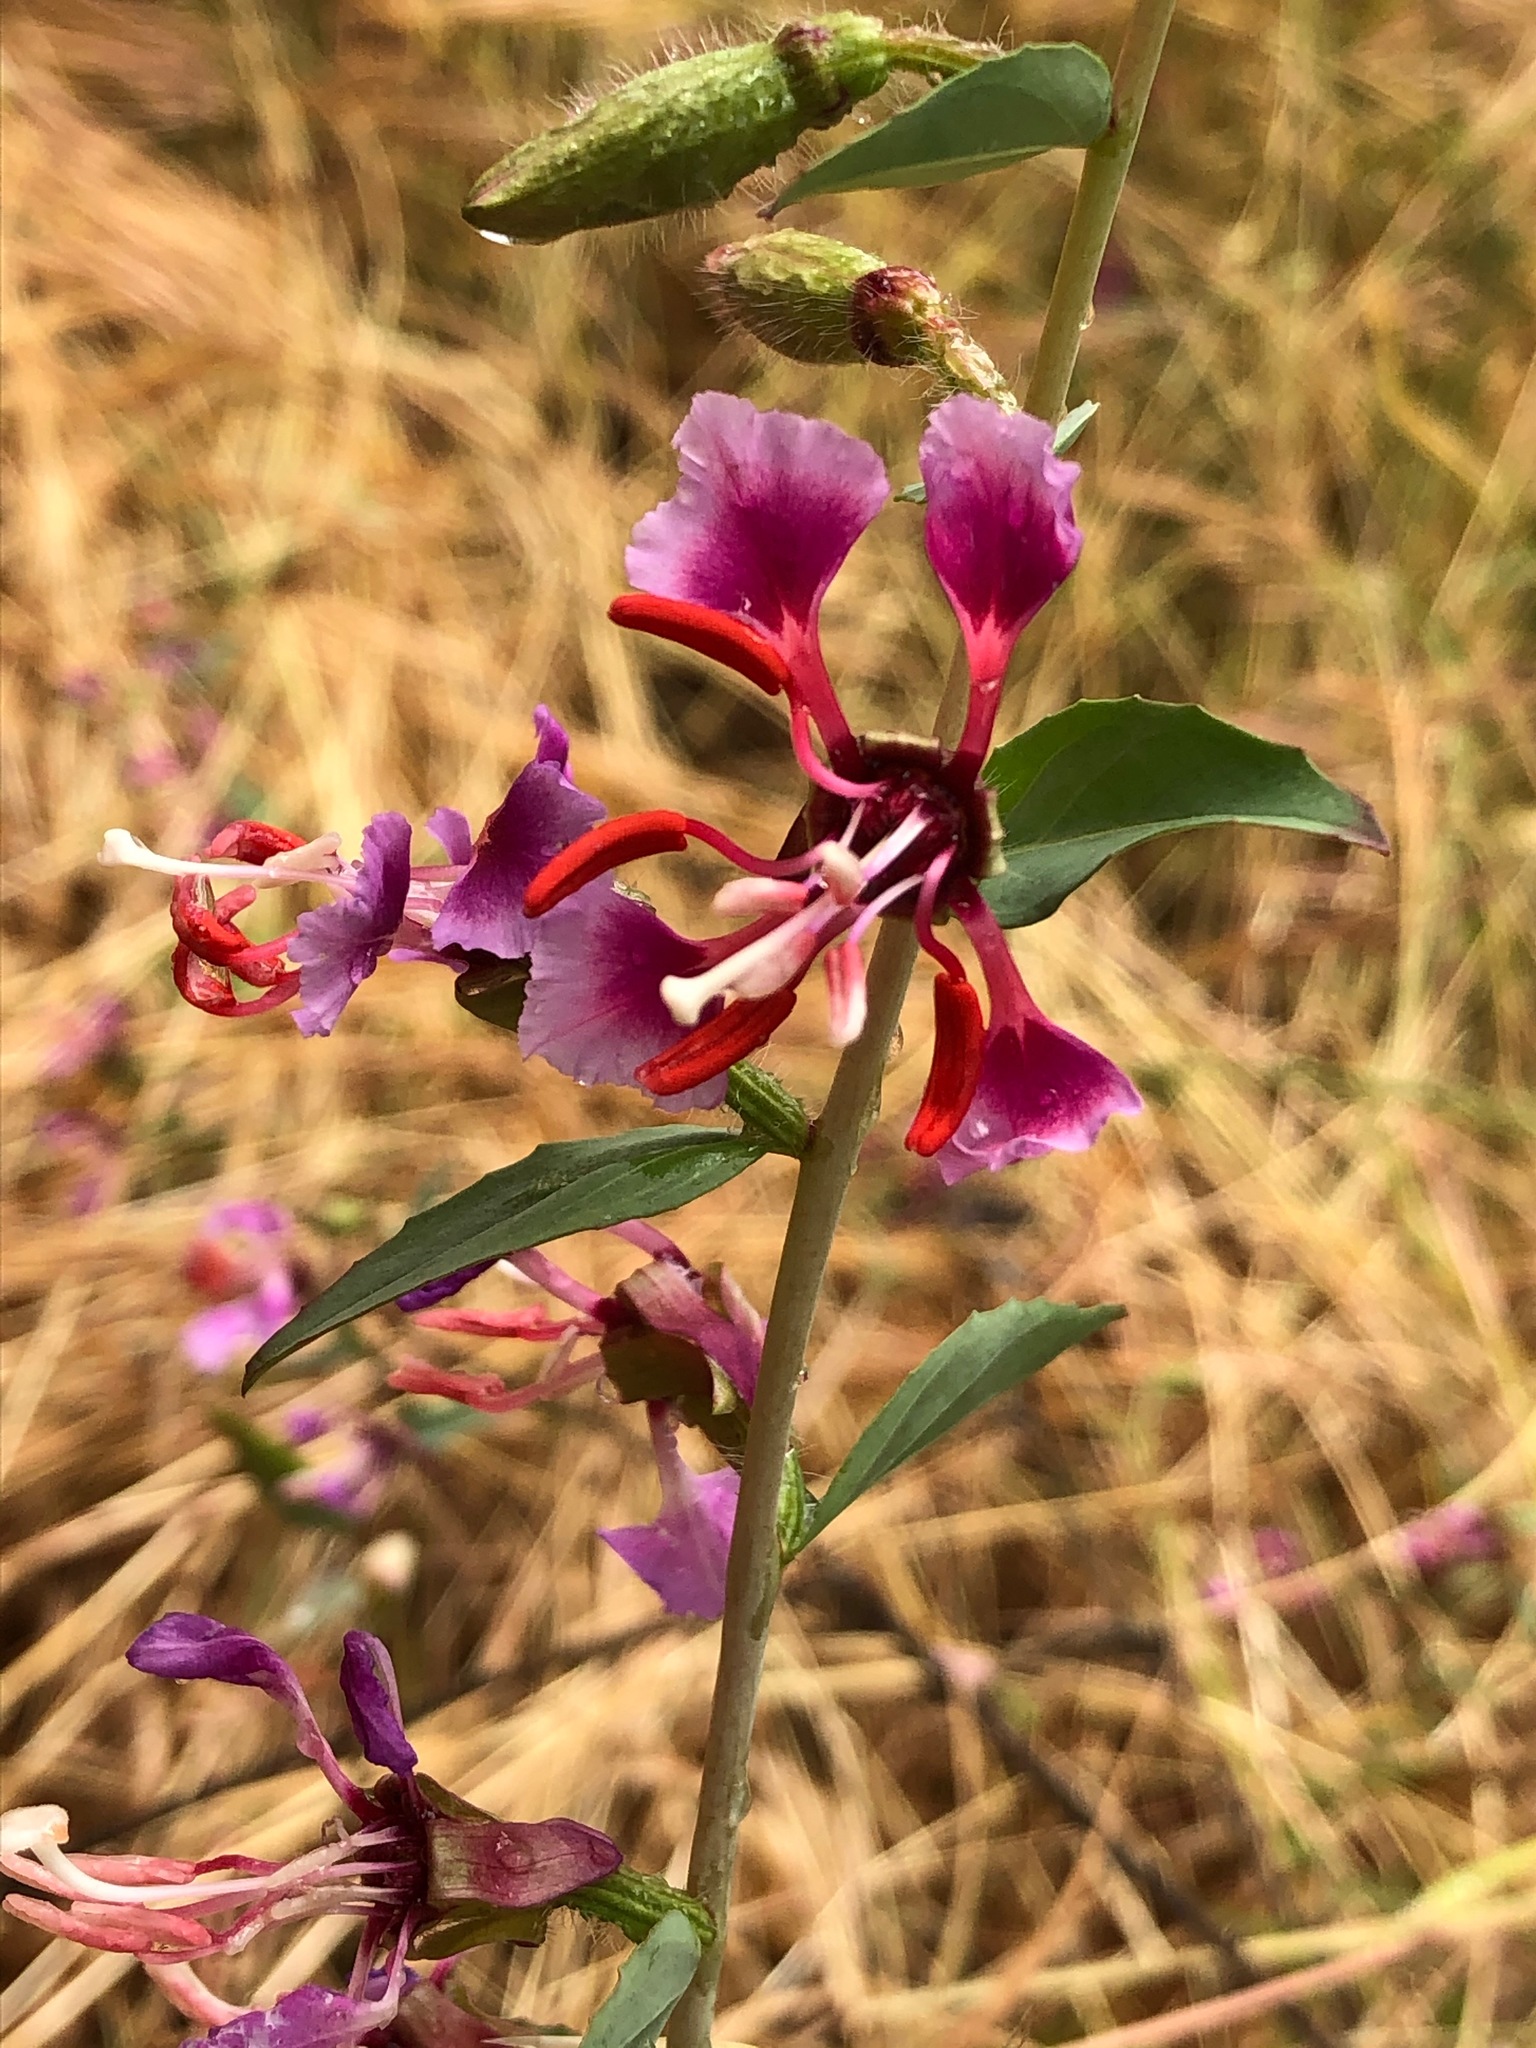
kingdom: Plantae
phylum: Tracheophyta
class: Magnoliopsida
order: Myrtales
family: Onagraceae
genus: Clarkia
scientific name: Clarkia unguiculata
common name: Clarkia
